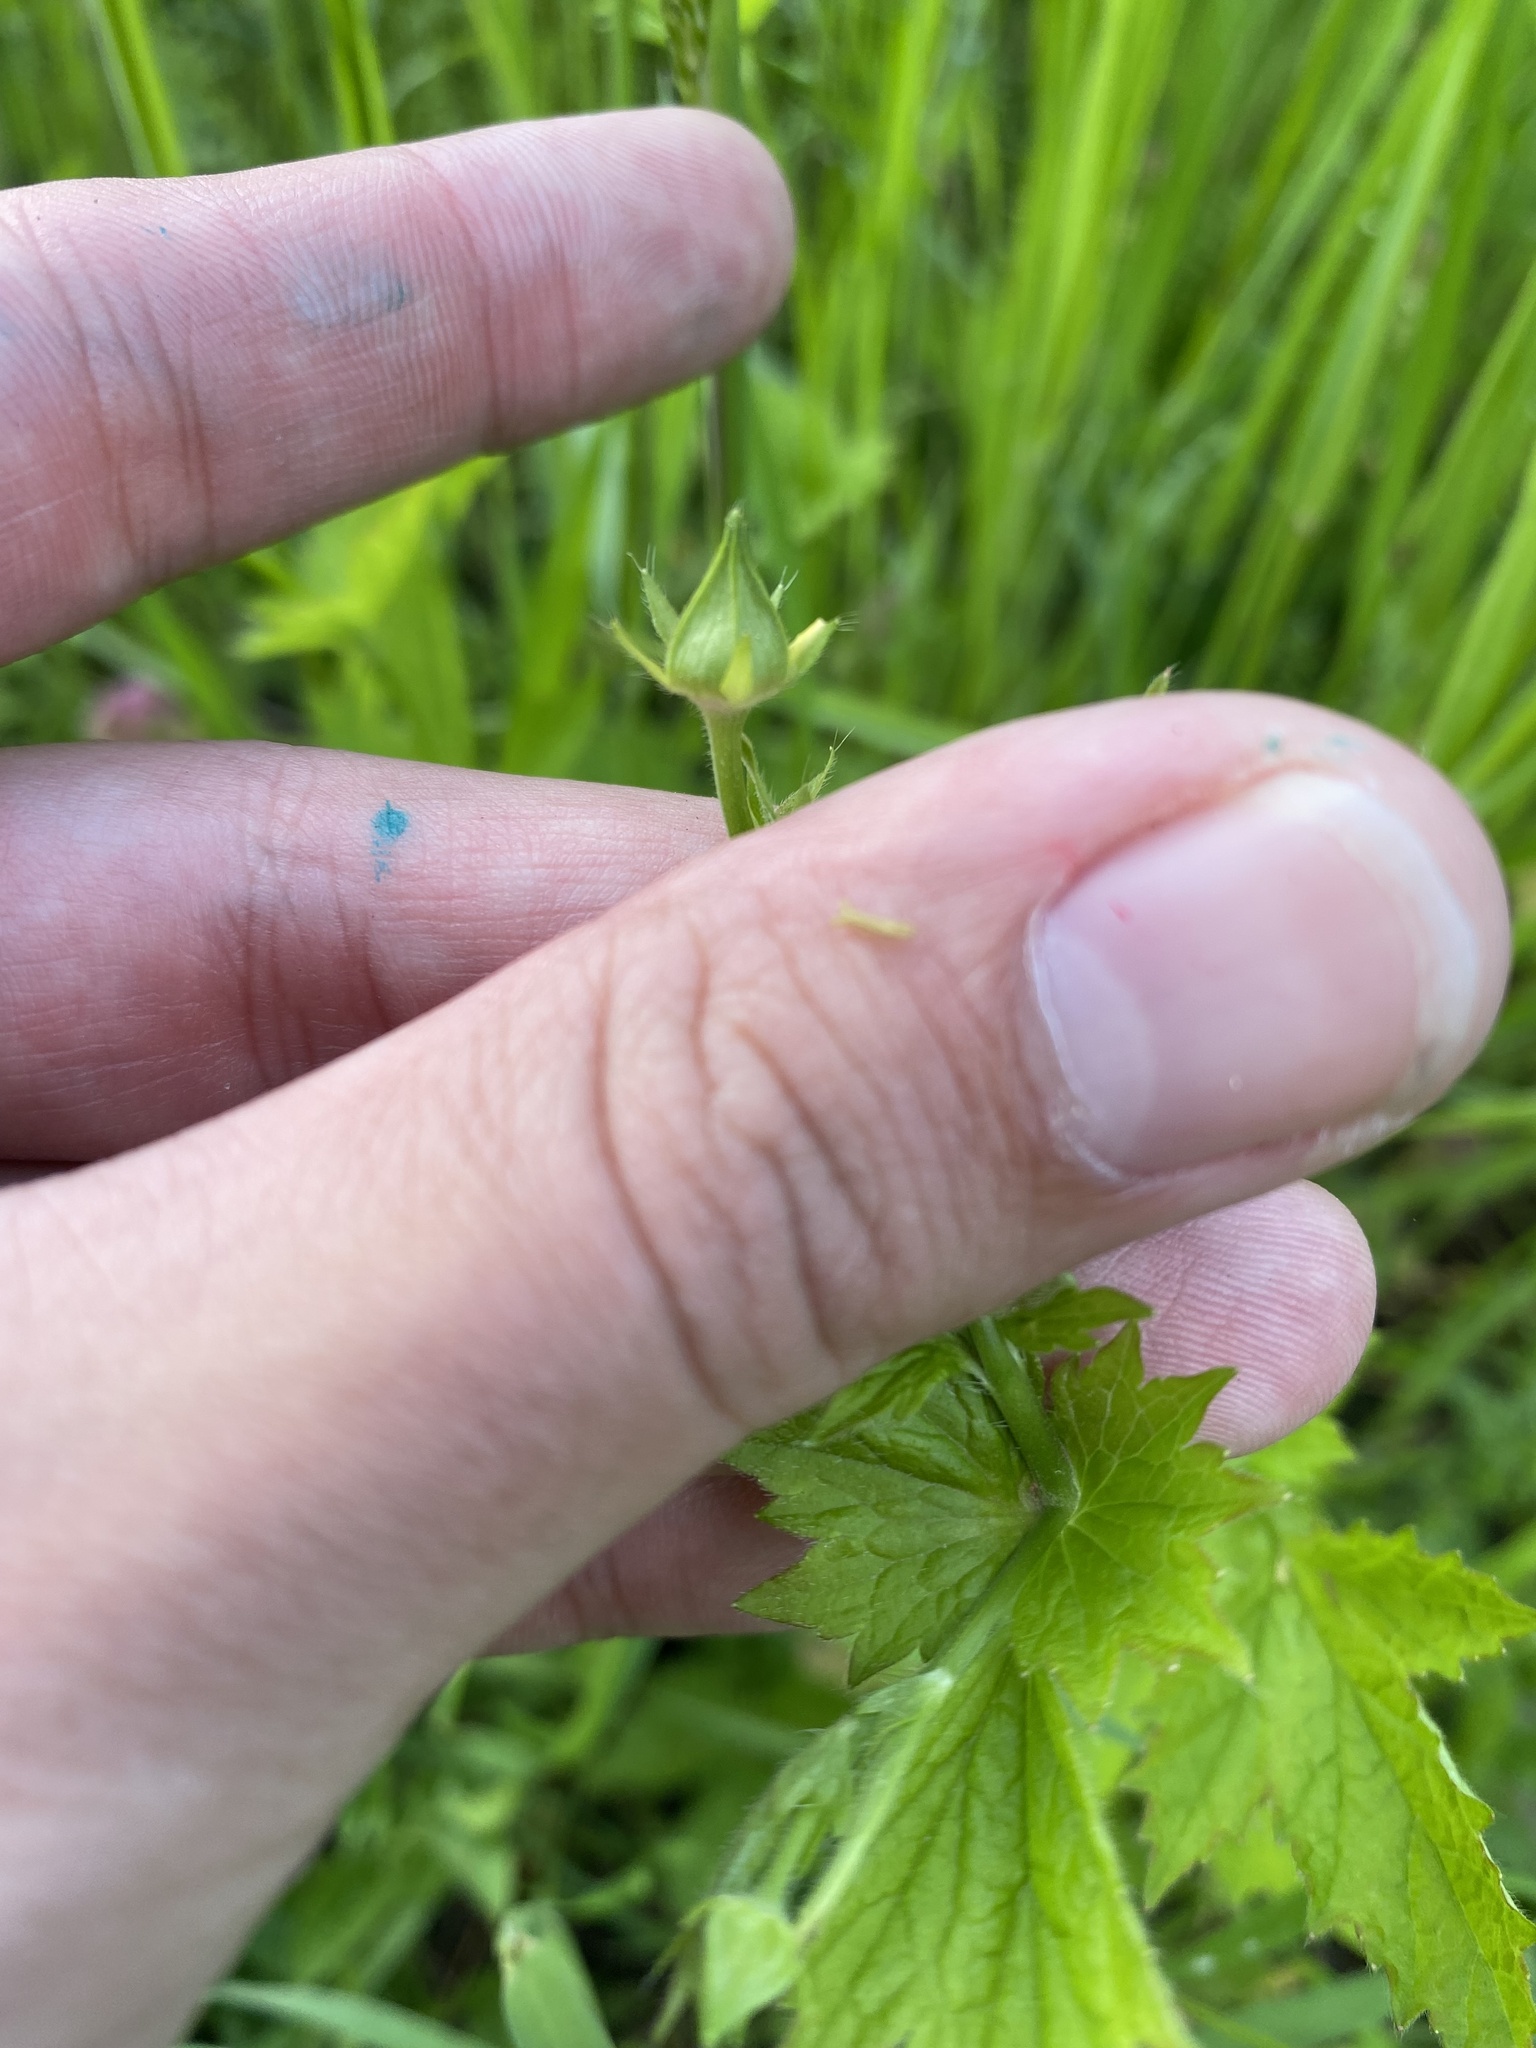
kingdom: Plantae
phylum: Tracheophyta
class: Magnoliopsida
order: Rosales
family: Rosaceae
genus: Geum
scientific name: Geum urbanum
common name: Wood avens
